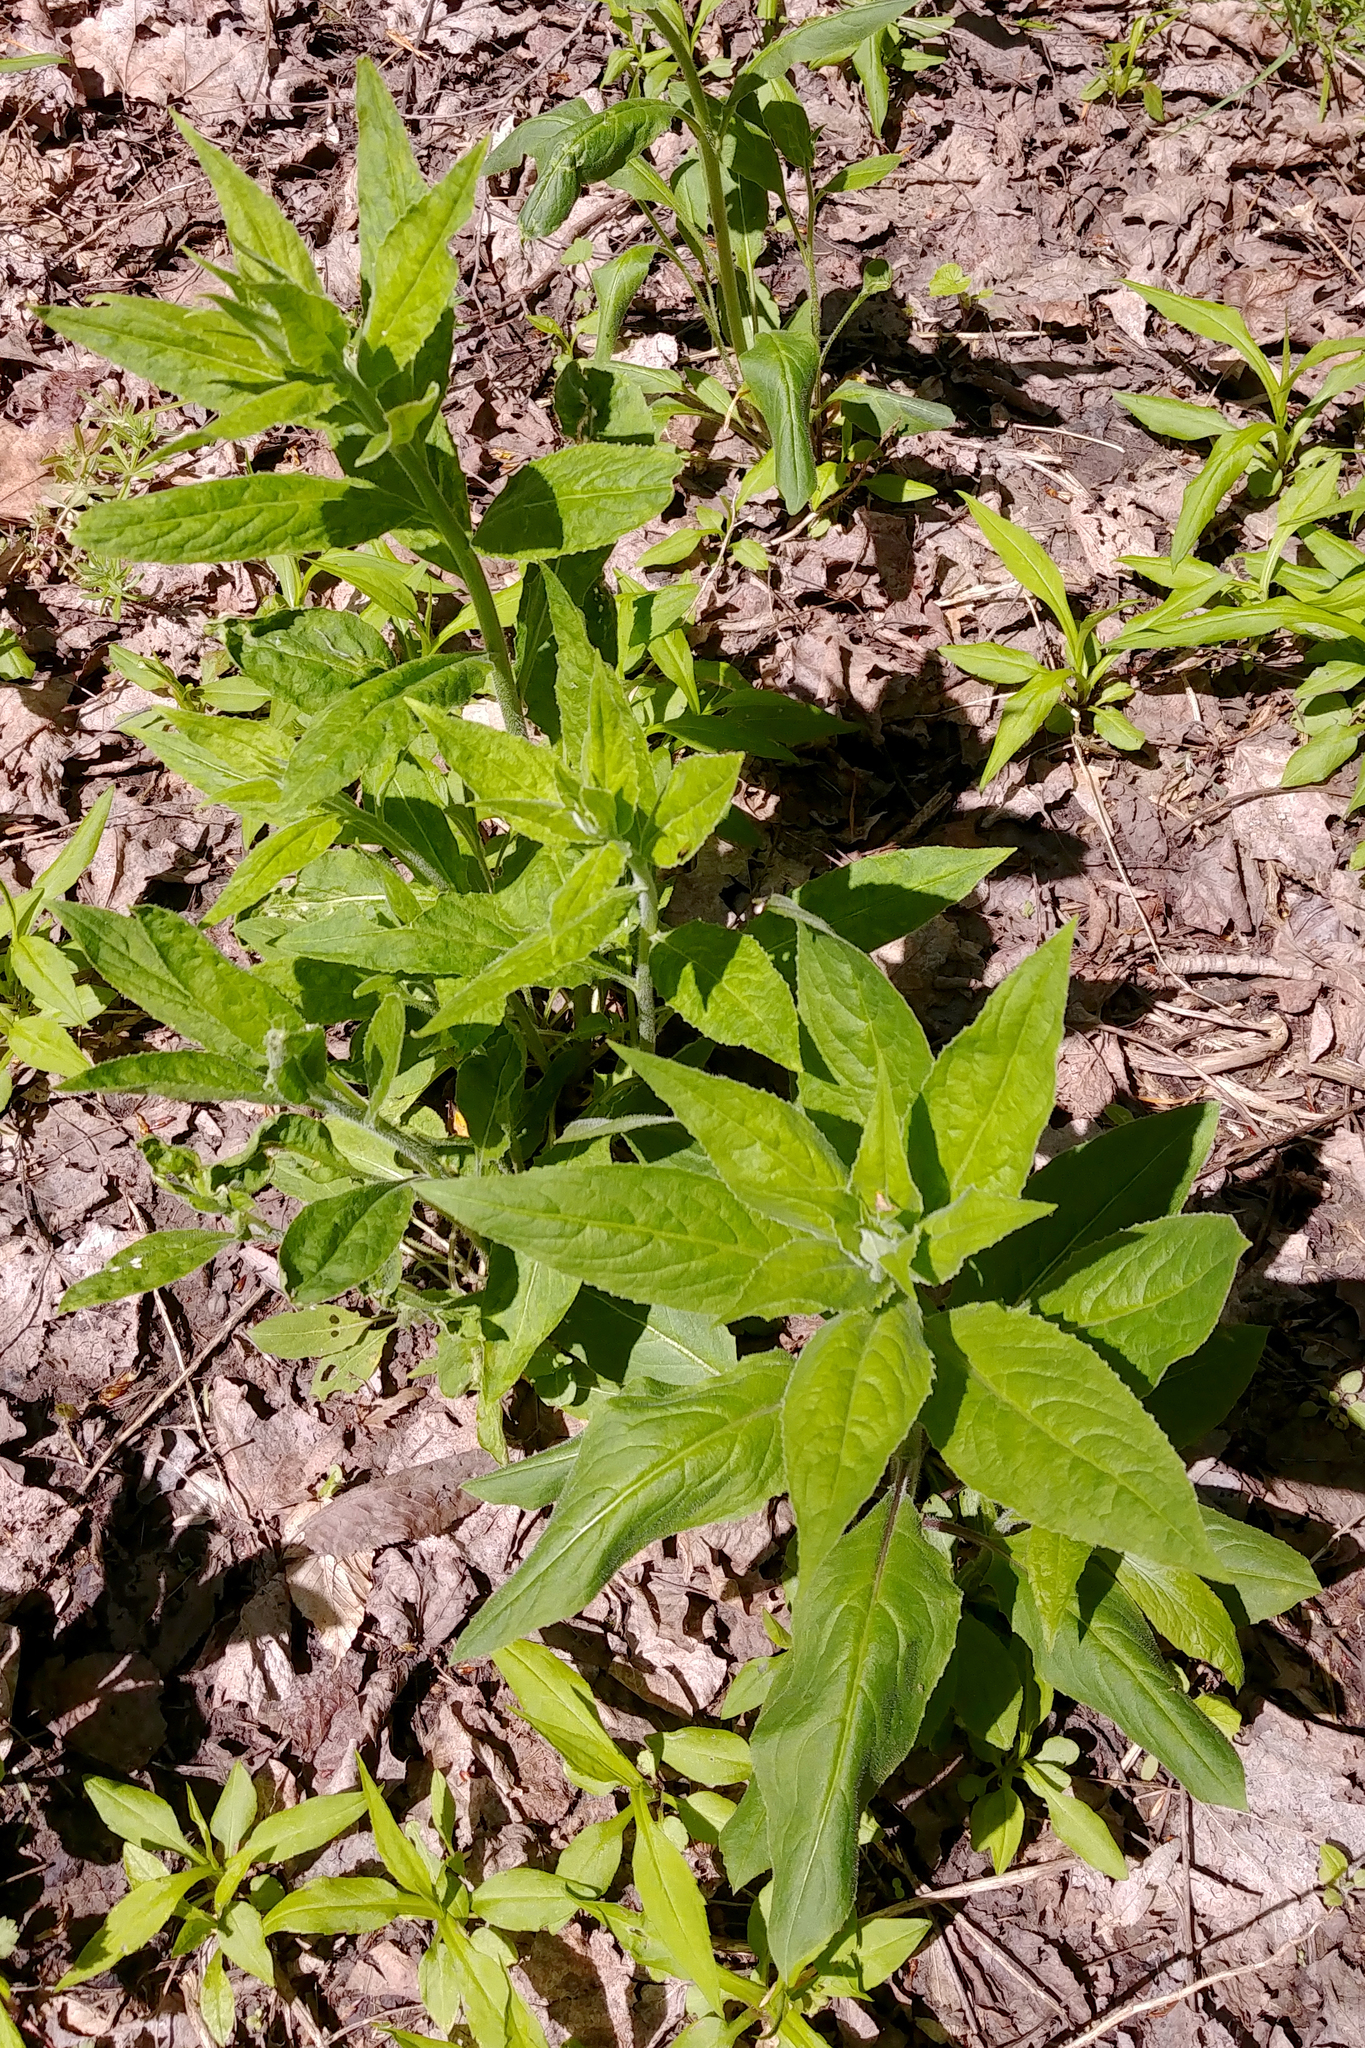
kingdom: Plantae
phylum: Tracheophyta
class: Magnoliopsida
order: Brassicales
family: Brassicaceae
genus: Hesperis
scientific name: Hesperis matronalis
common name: Dame's-violet
